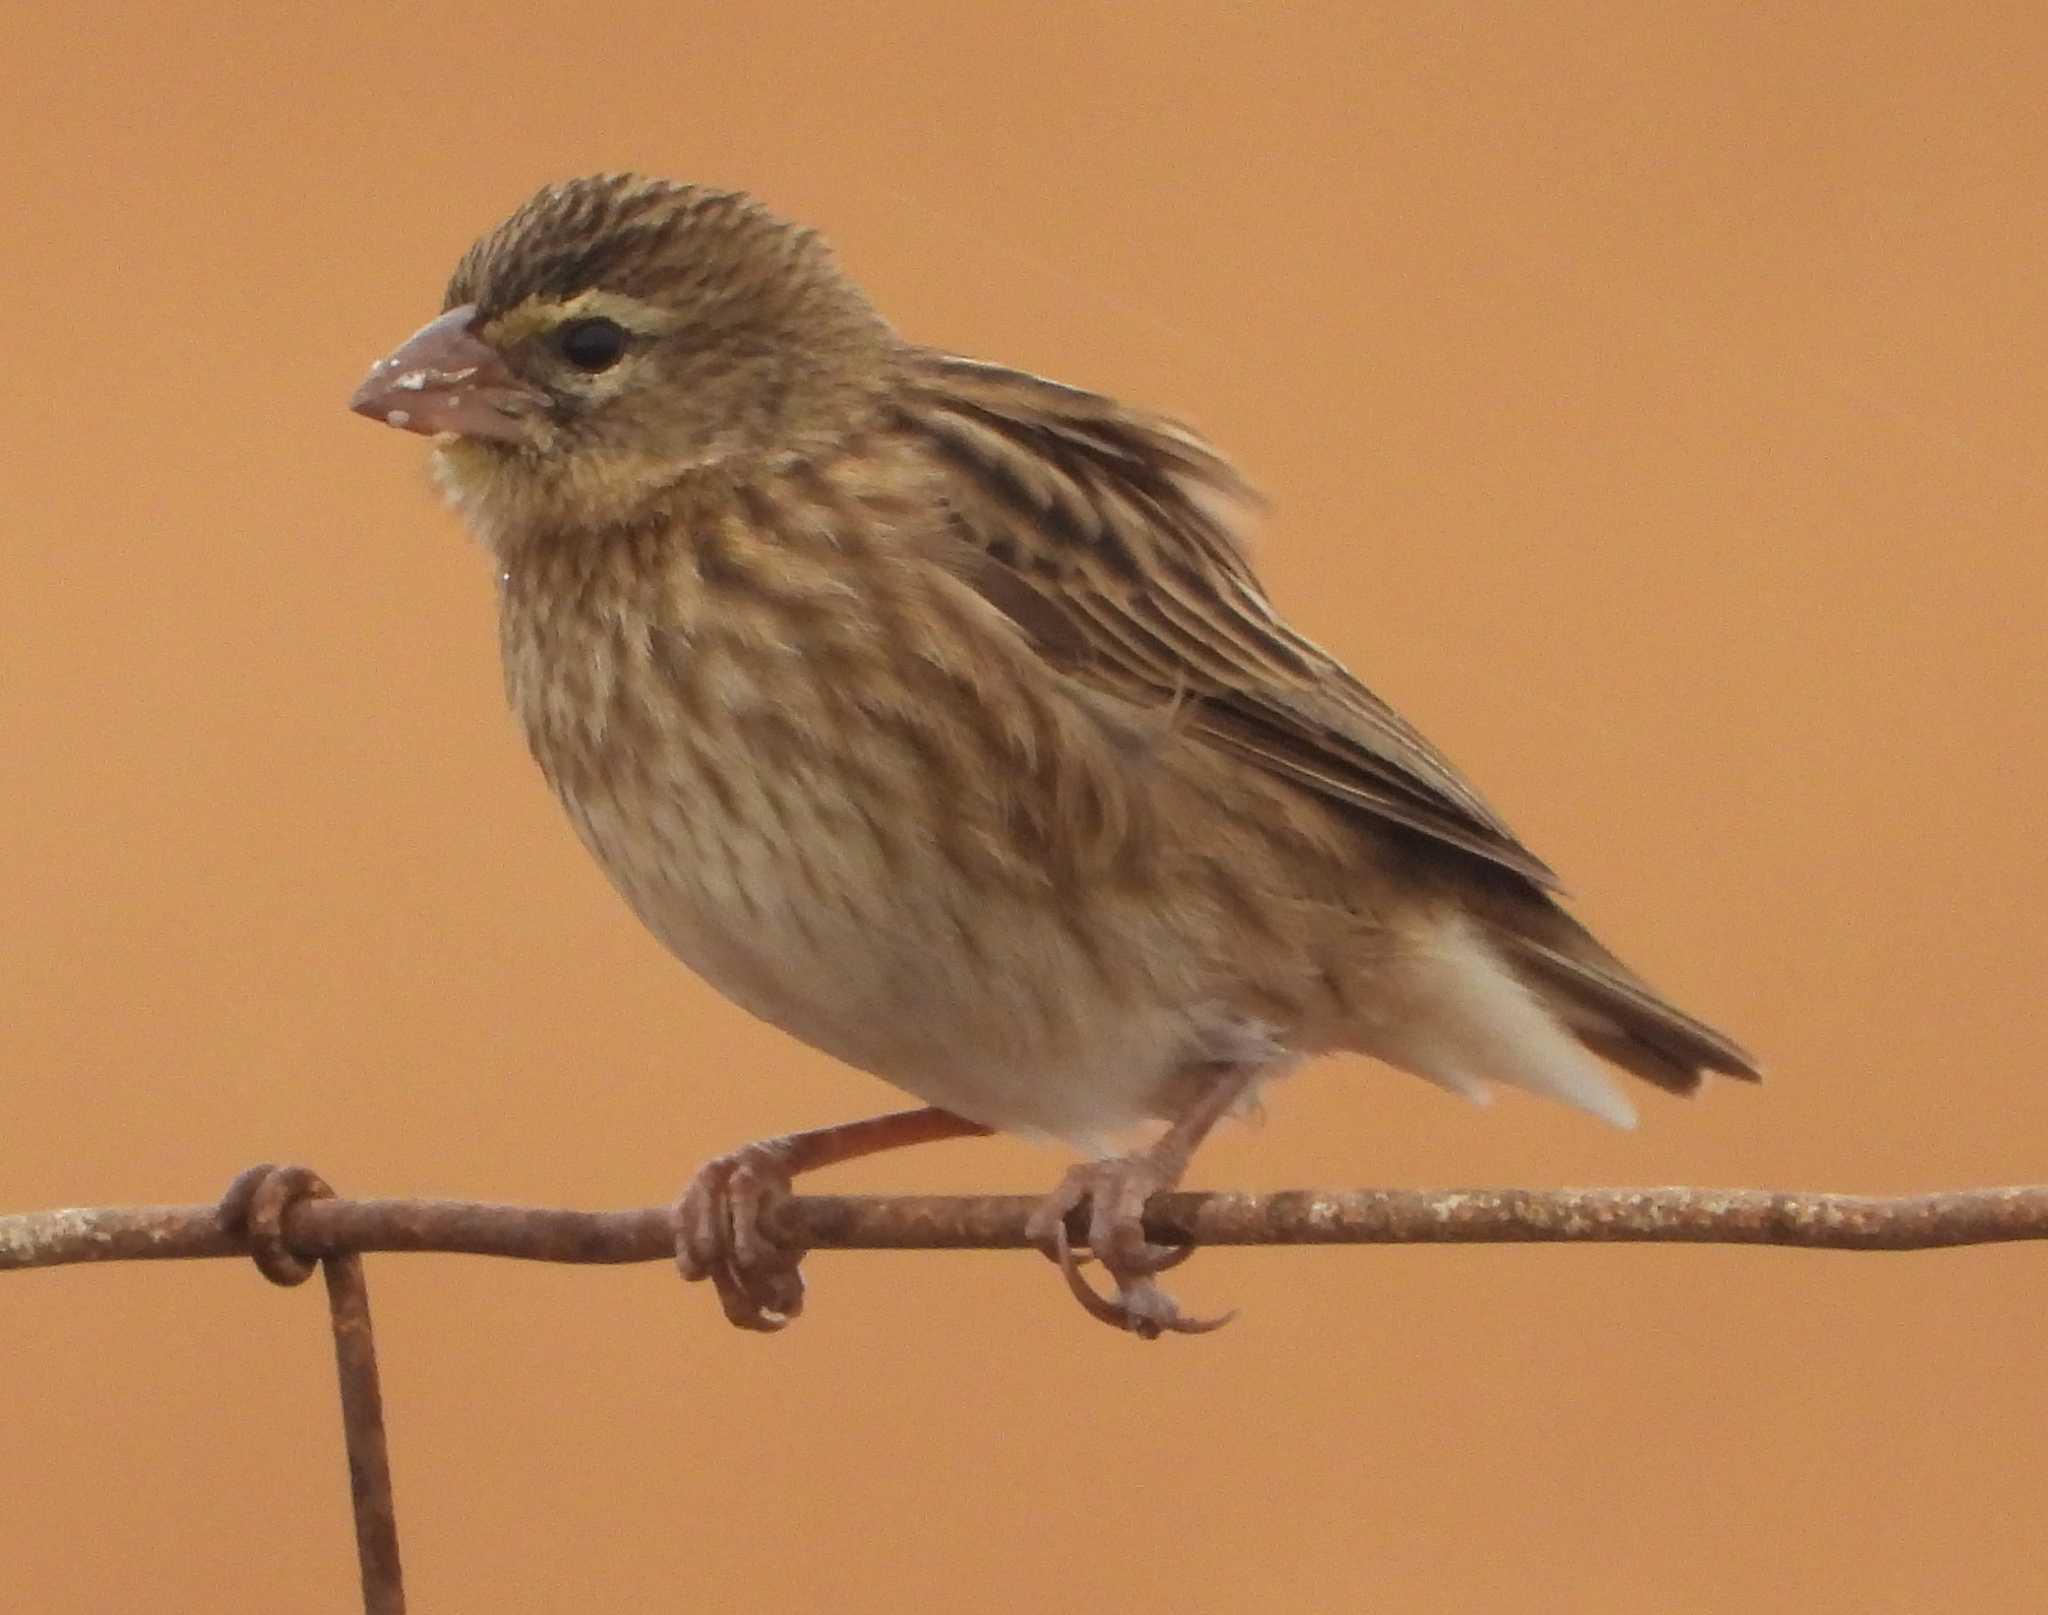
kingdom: Animalia
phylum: Chordata
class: Aves
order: Passeriformes
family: Ploceidae
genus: Euplectes
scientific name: Euplectes orix
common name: Southern red bishop
